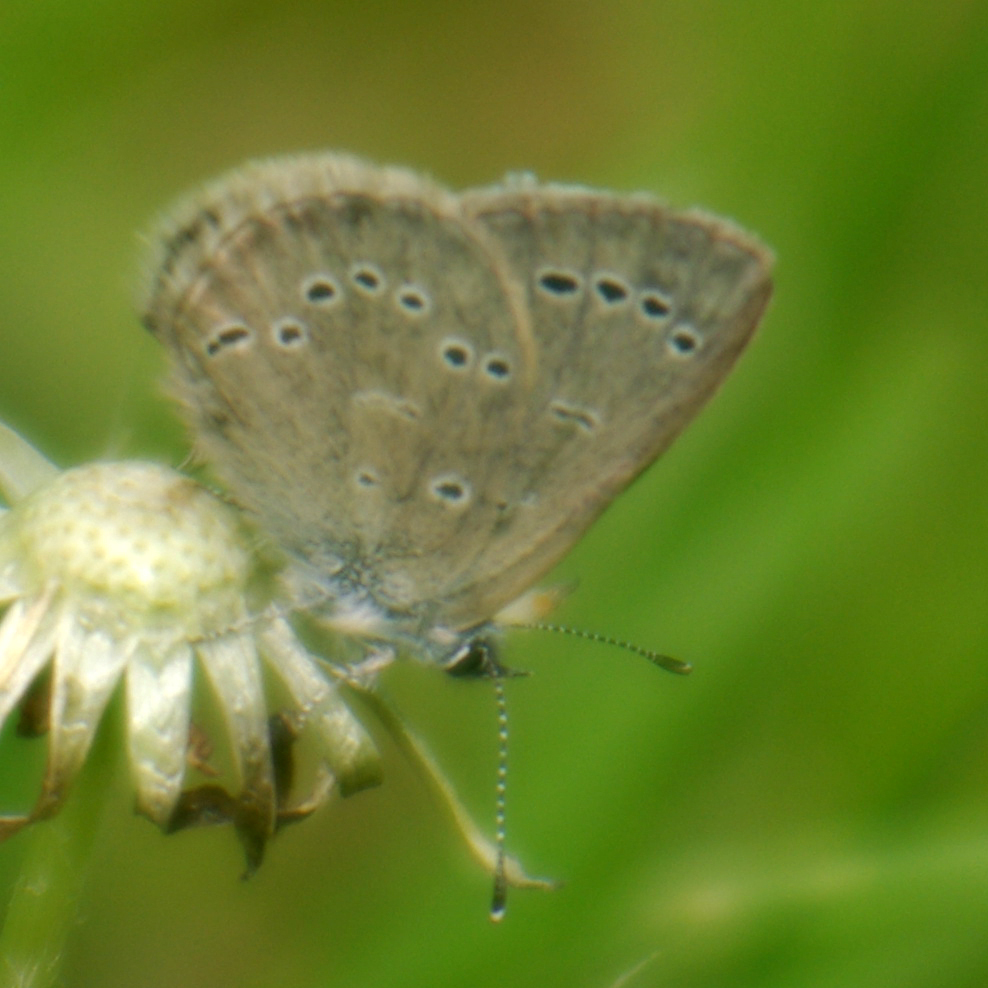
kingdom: Animalia
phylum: Arthropoda
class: Insecta
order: Lepidoptera
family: Lycaenidae
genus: Glaucopsyche
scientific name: Glaucopsyche lygdamus
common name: Silvery blue
